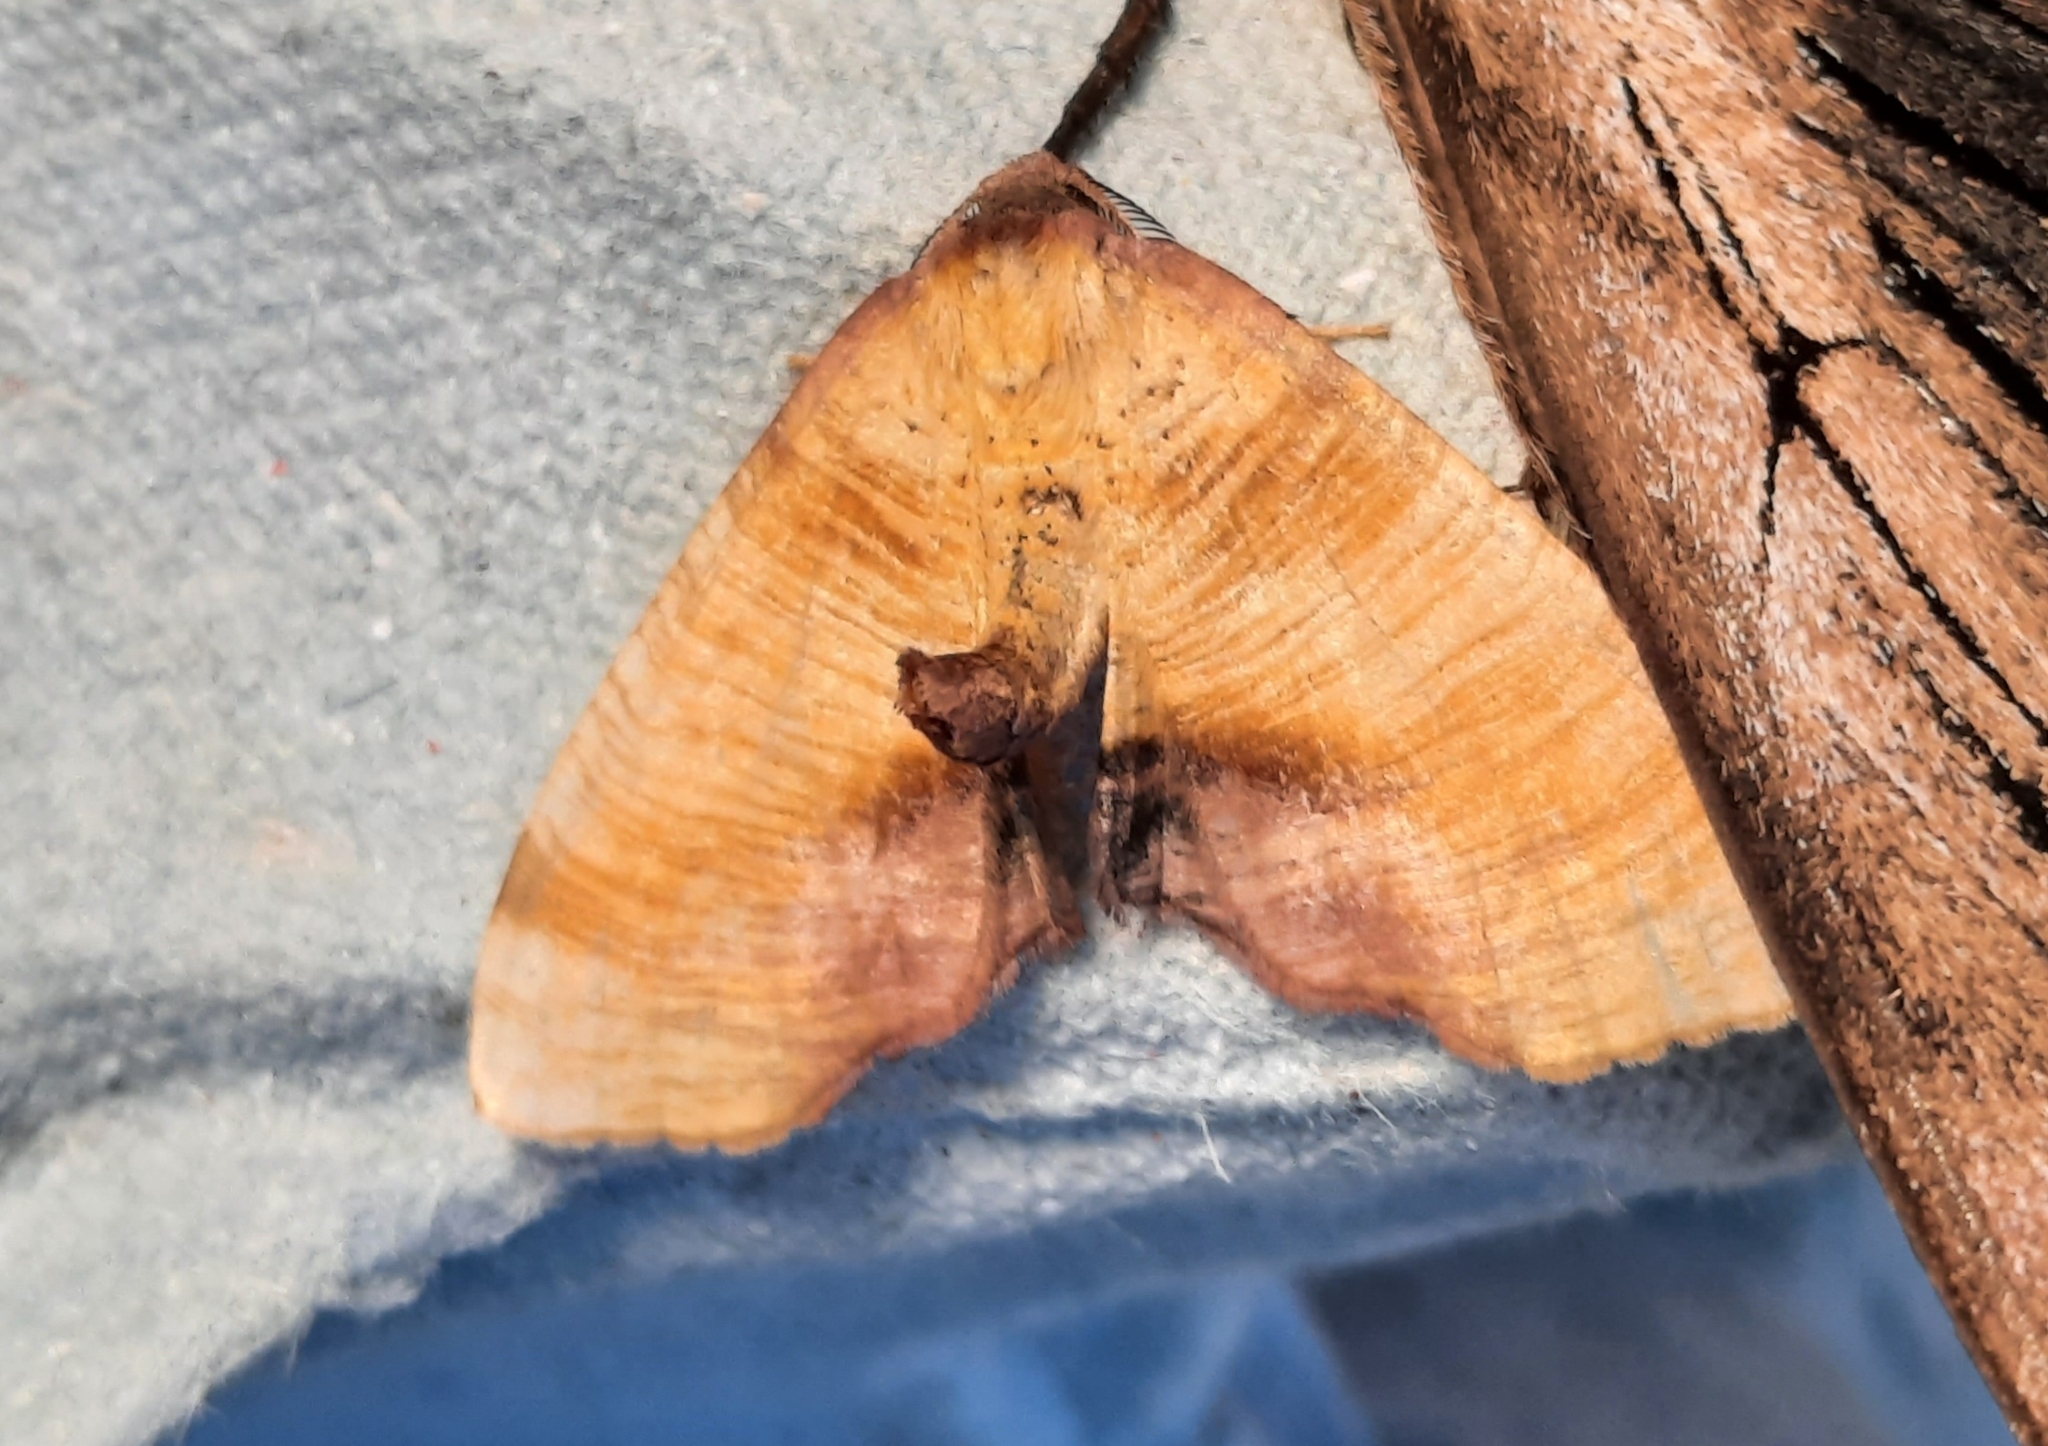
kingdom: Animalia
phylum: Arthropoda
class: Insecta
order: Lepidoptera
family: Geometridae
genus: Plagodis
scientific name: Plagodis dolabraria
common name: Scorched wing
